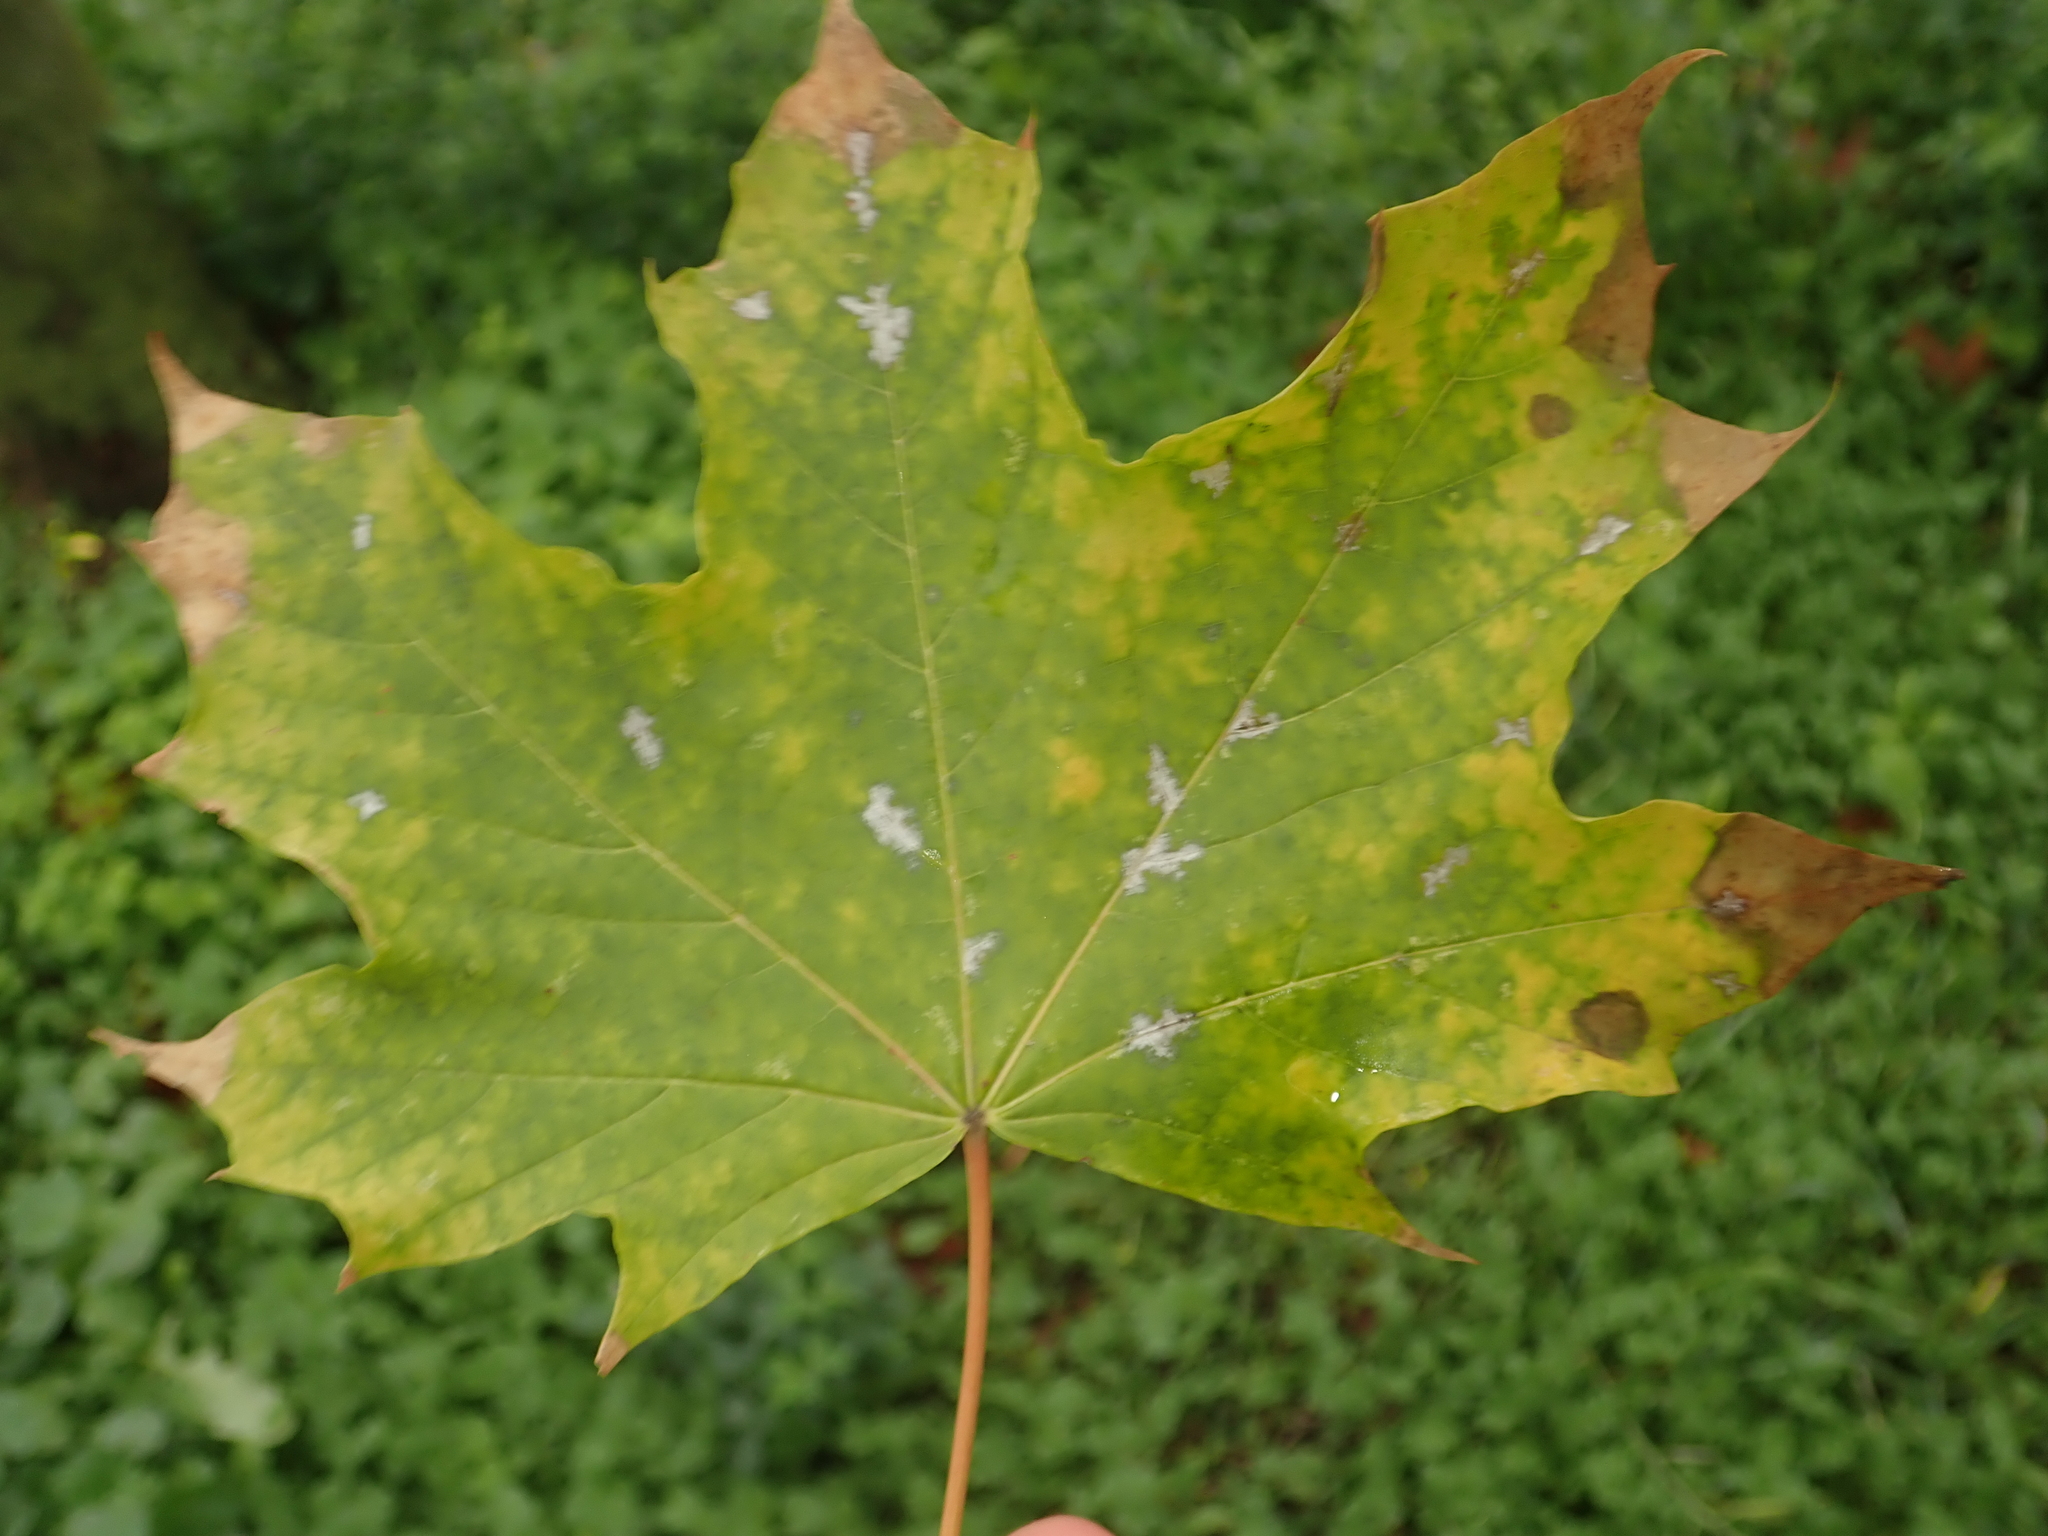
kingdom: Plantae
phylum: Tracheophyta
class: Magnoliopsida
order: Sapindales
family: Sapindaceae
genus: Acer
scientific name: Acer platanoides
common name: Norway maple
